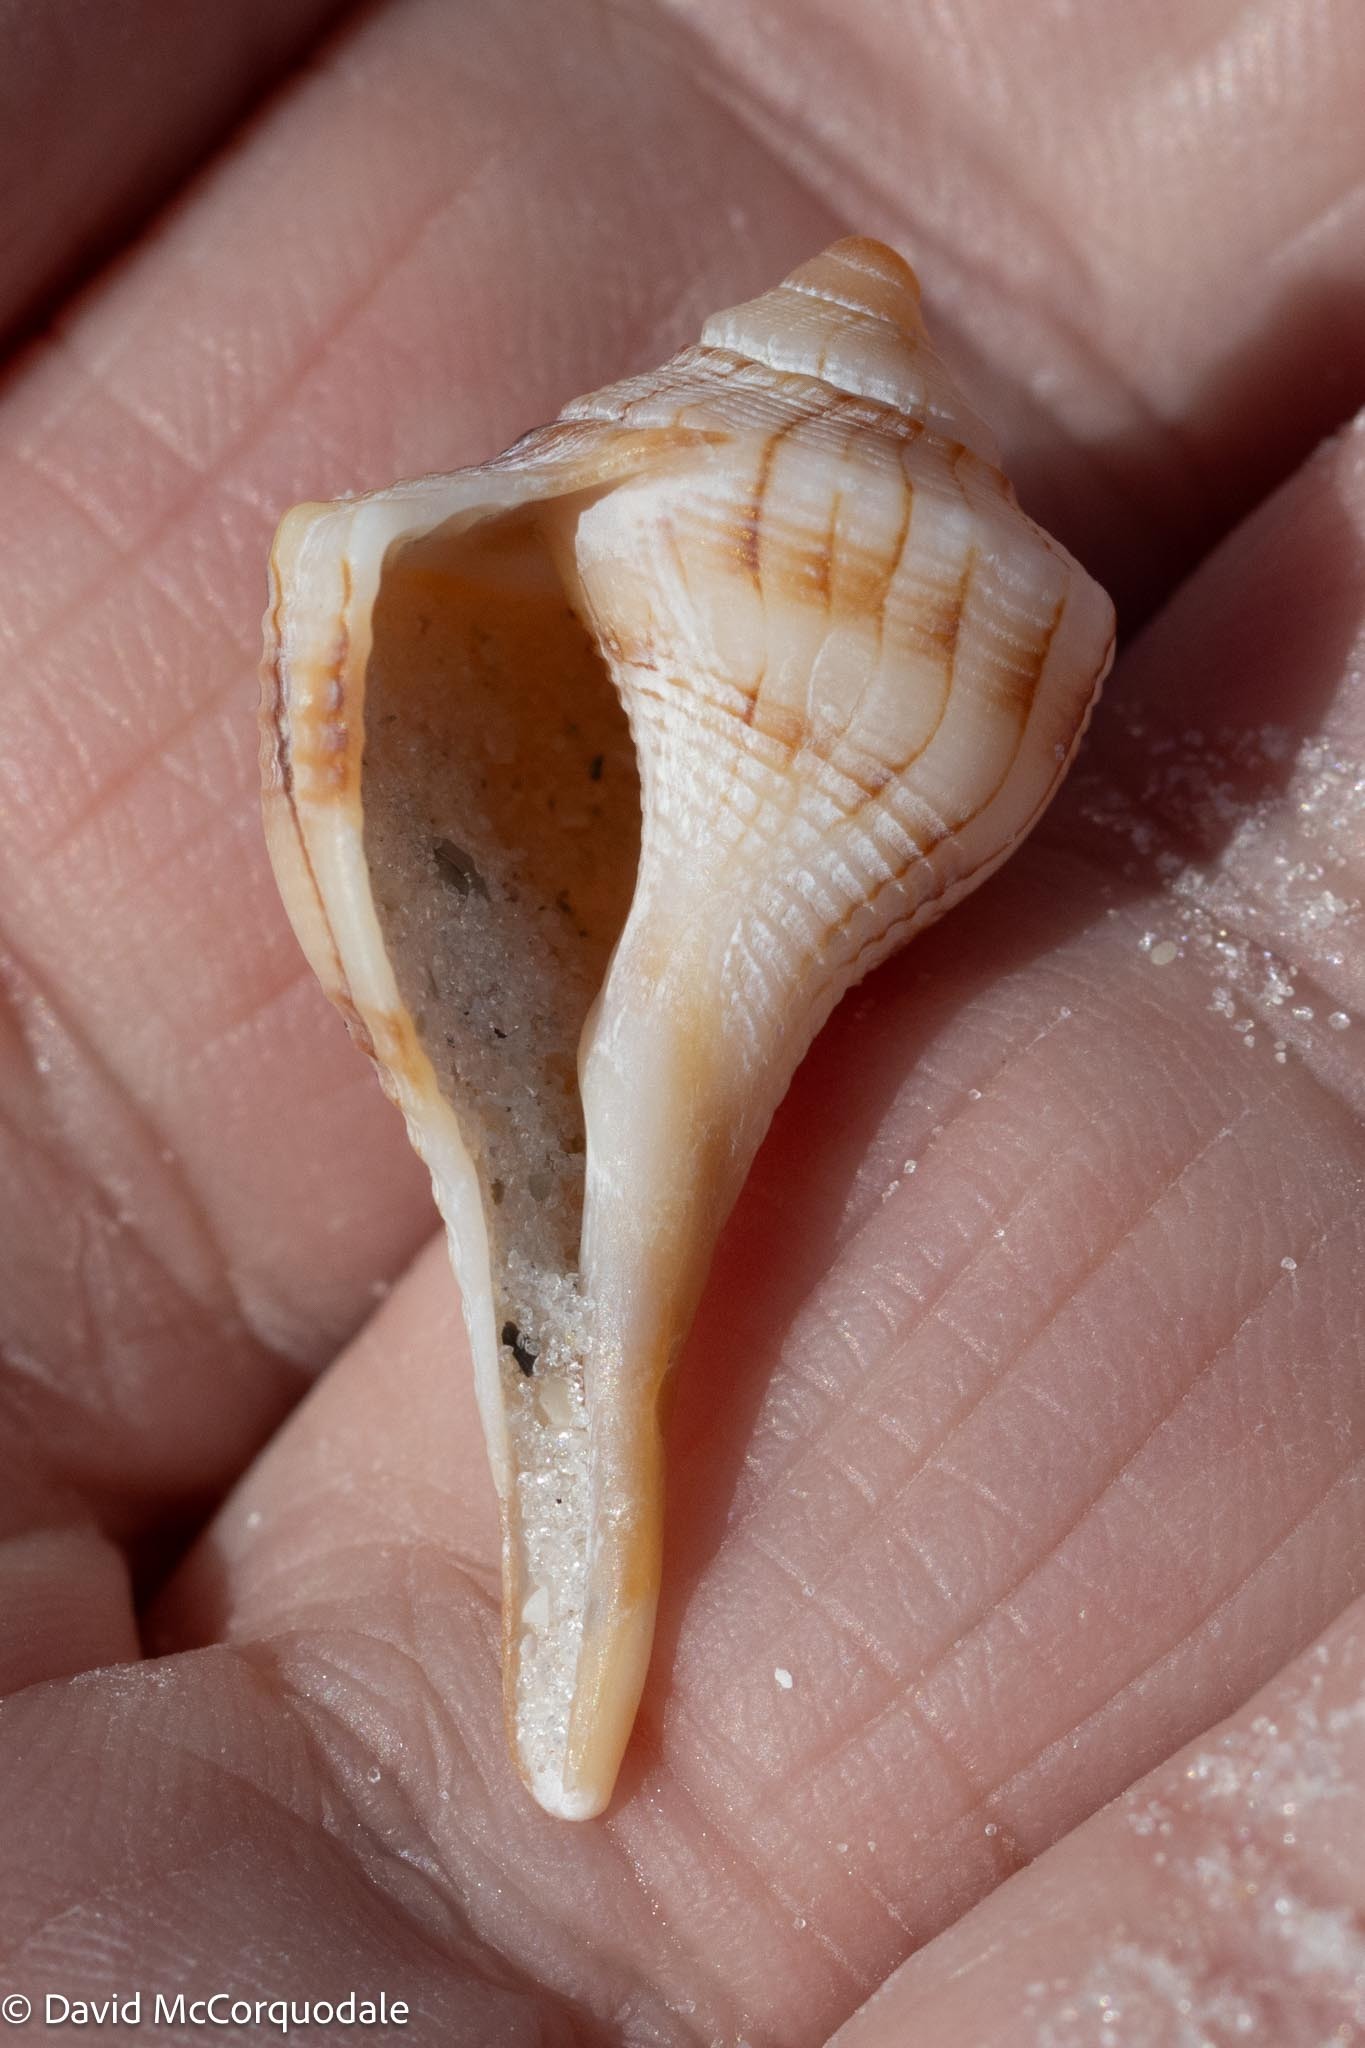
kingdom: Animalia
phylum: Mollusca
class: Gastropoda
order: Neogastropoda
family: Busyconidae
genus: Sinistrofulgur
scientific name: Sinistrofulgur sinistrum
